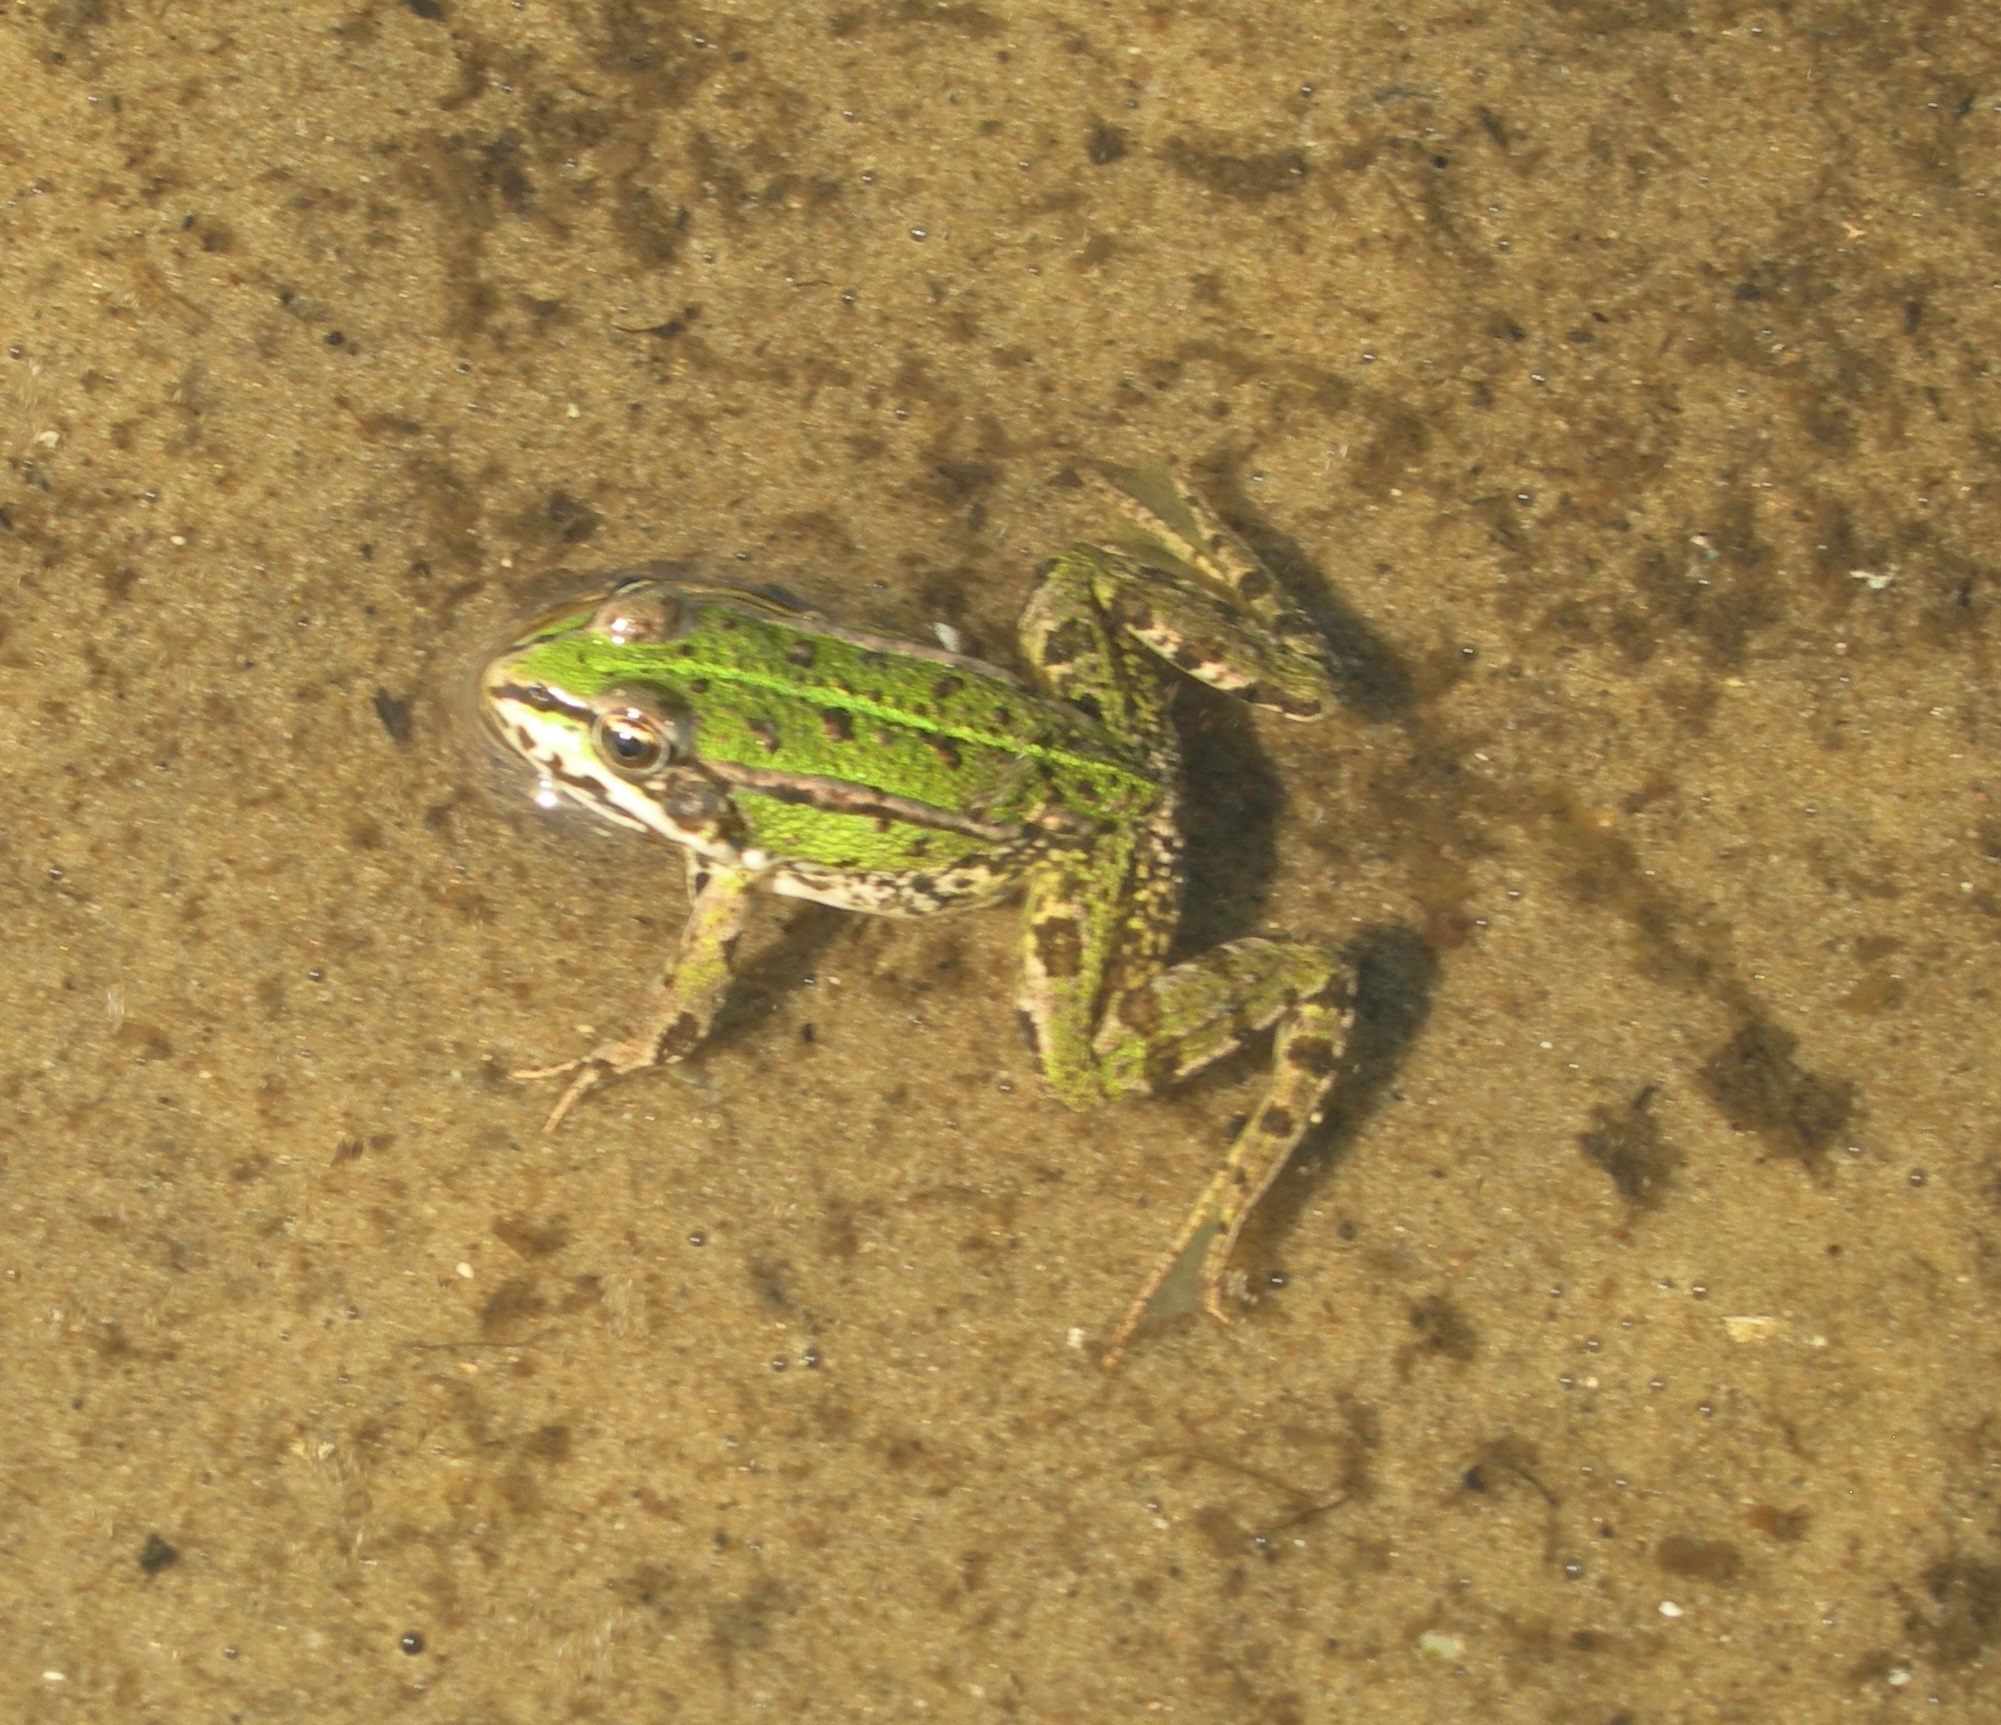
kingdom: Animalia
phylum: Chordata
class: Amphibia
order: Anura
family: Ranidae
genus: Pelophylax
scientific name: Pelophylax ridibundus
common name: Marsh frog
